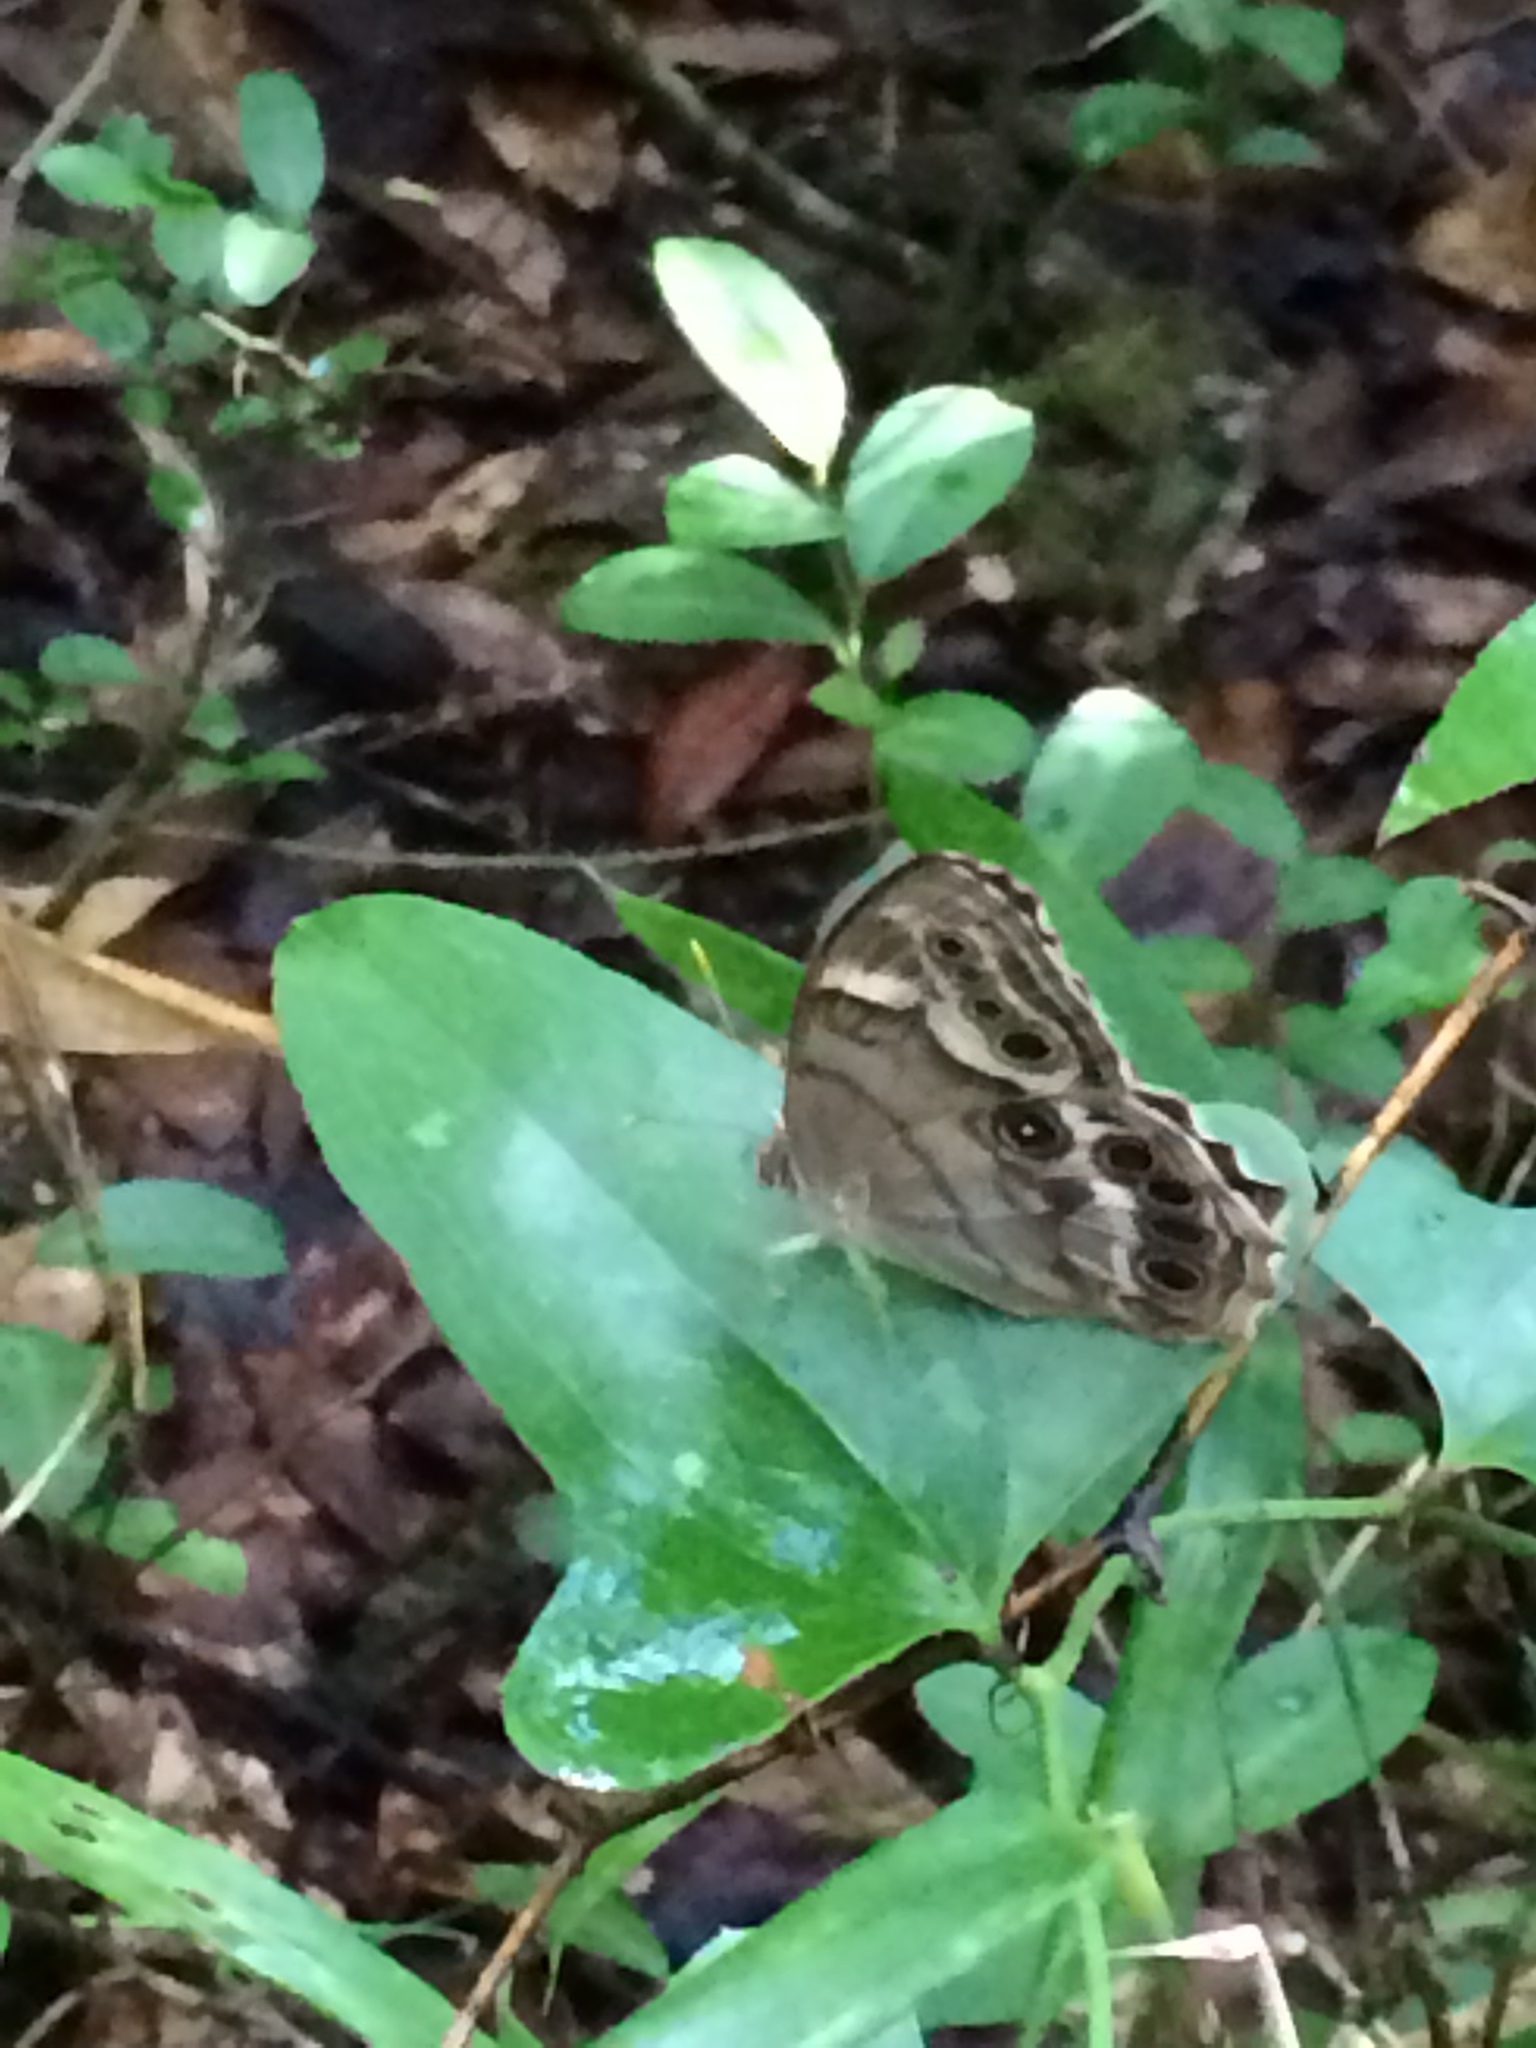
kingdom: Animalia
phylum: Arthropoda
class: Insecta
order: Lepidoptera
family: Nymphalidae
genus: Enodia
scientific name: Enodia portlandia
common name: Southern pearly-eye
